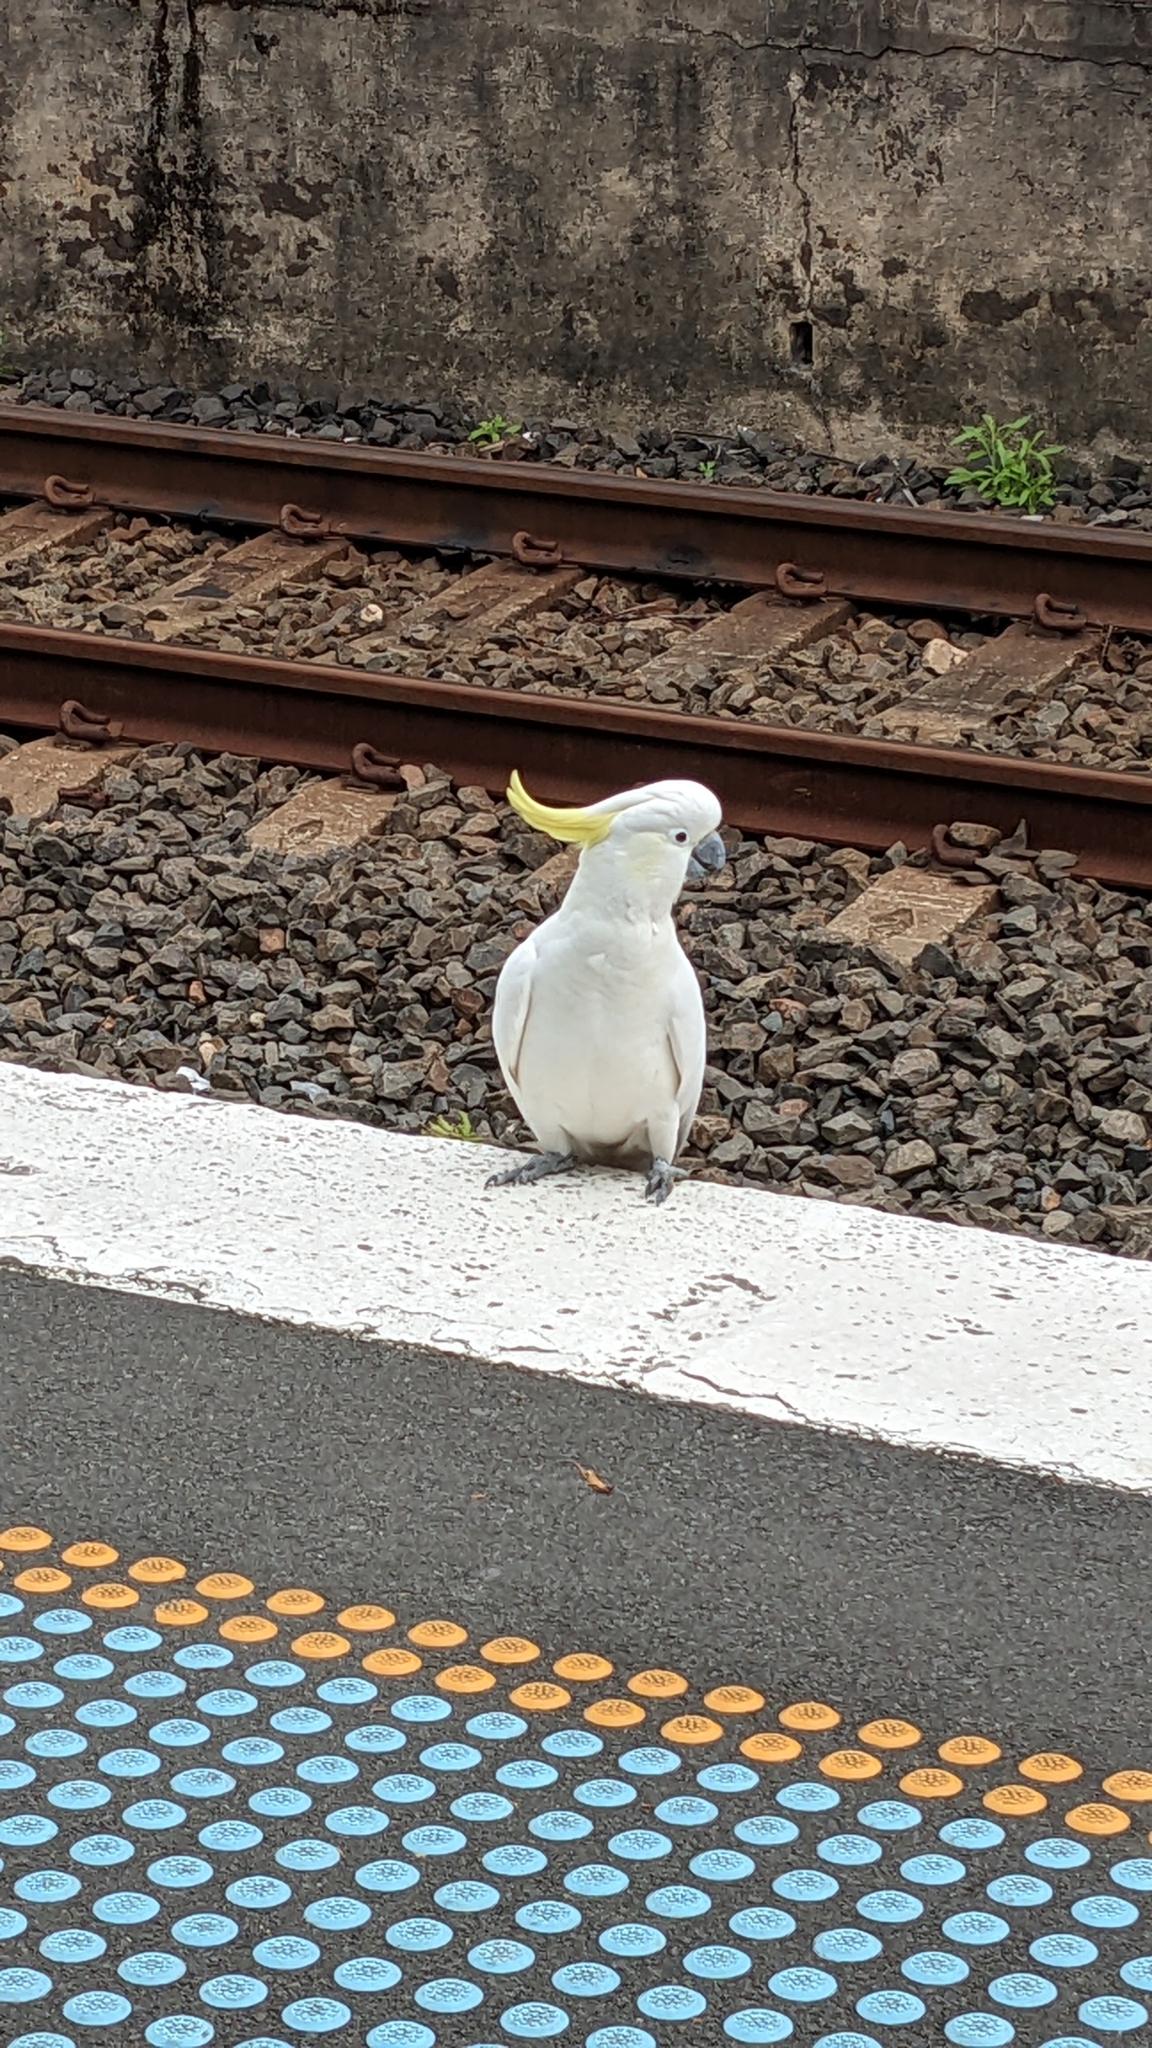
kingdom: Animalia
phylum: Chordata
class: Aves
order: Psittaciformes
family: Psittacidae
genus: Cacatua
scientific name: Cacatua galerita
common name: Sulphur-crested cockatoo
